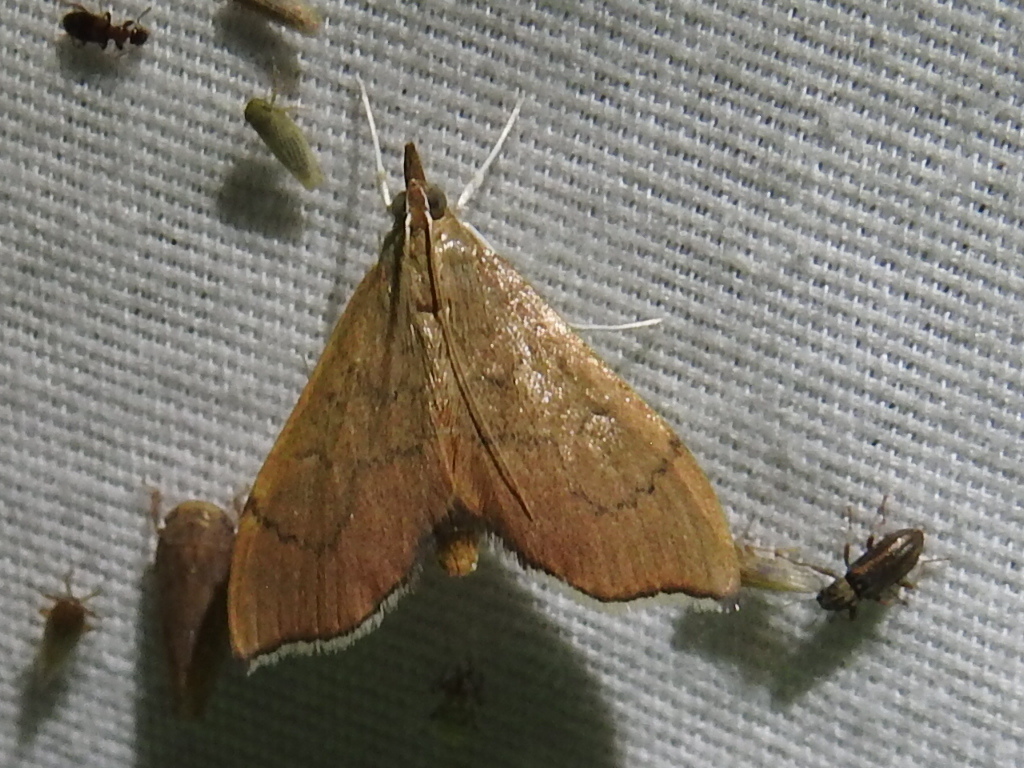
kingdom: Animalia
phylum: Arthropoda
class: Insecta
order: Lepidoptera
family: Crambidae
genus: Sericoplaga
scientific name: Sericoplaga externalis
